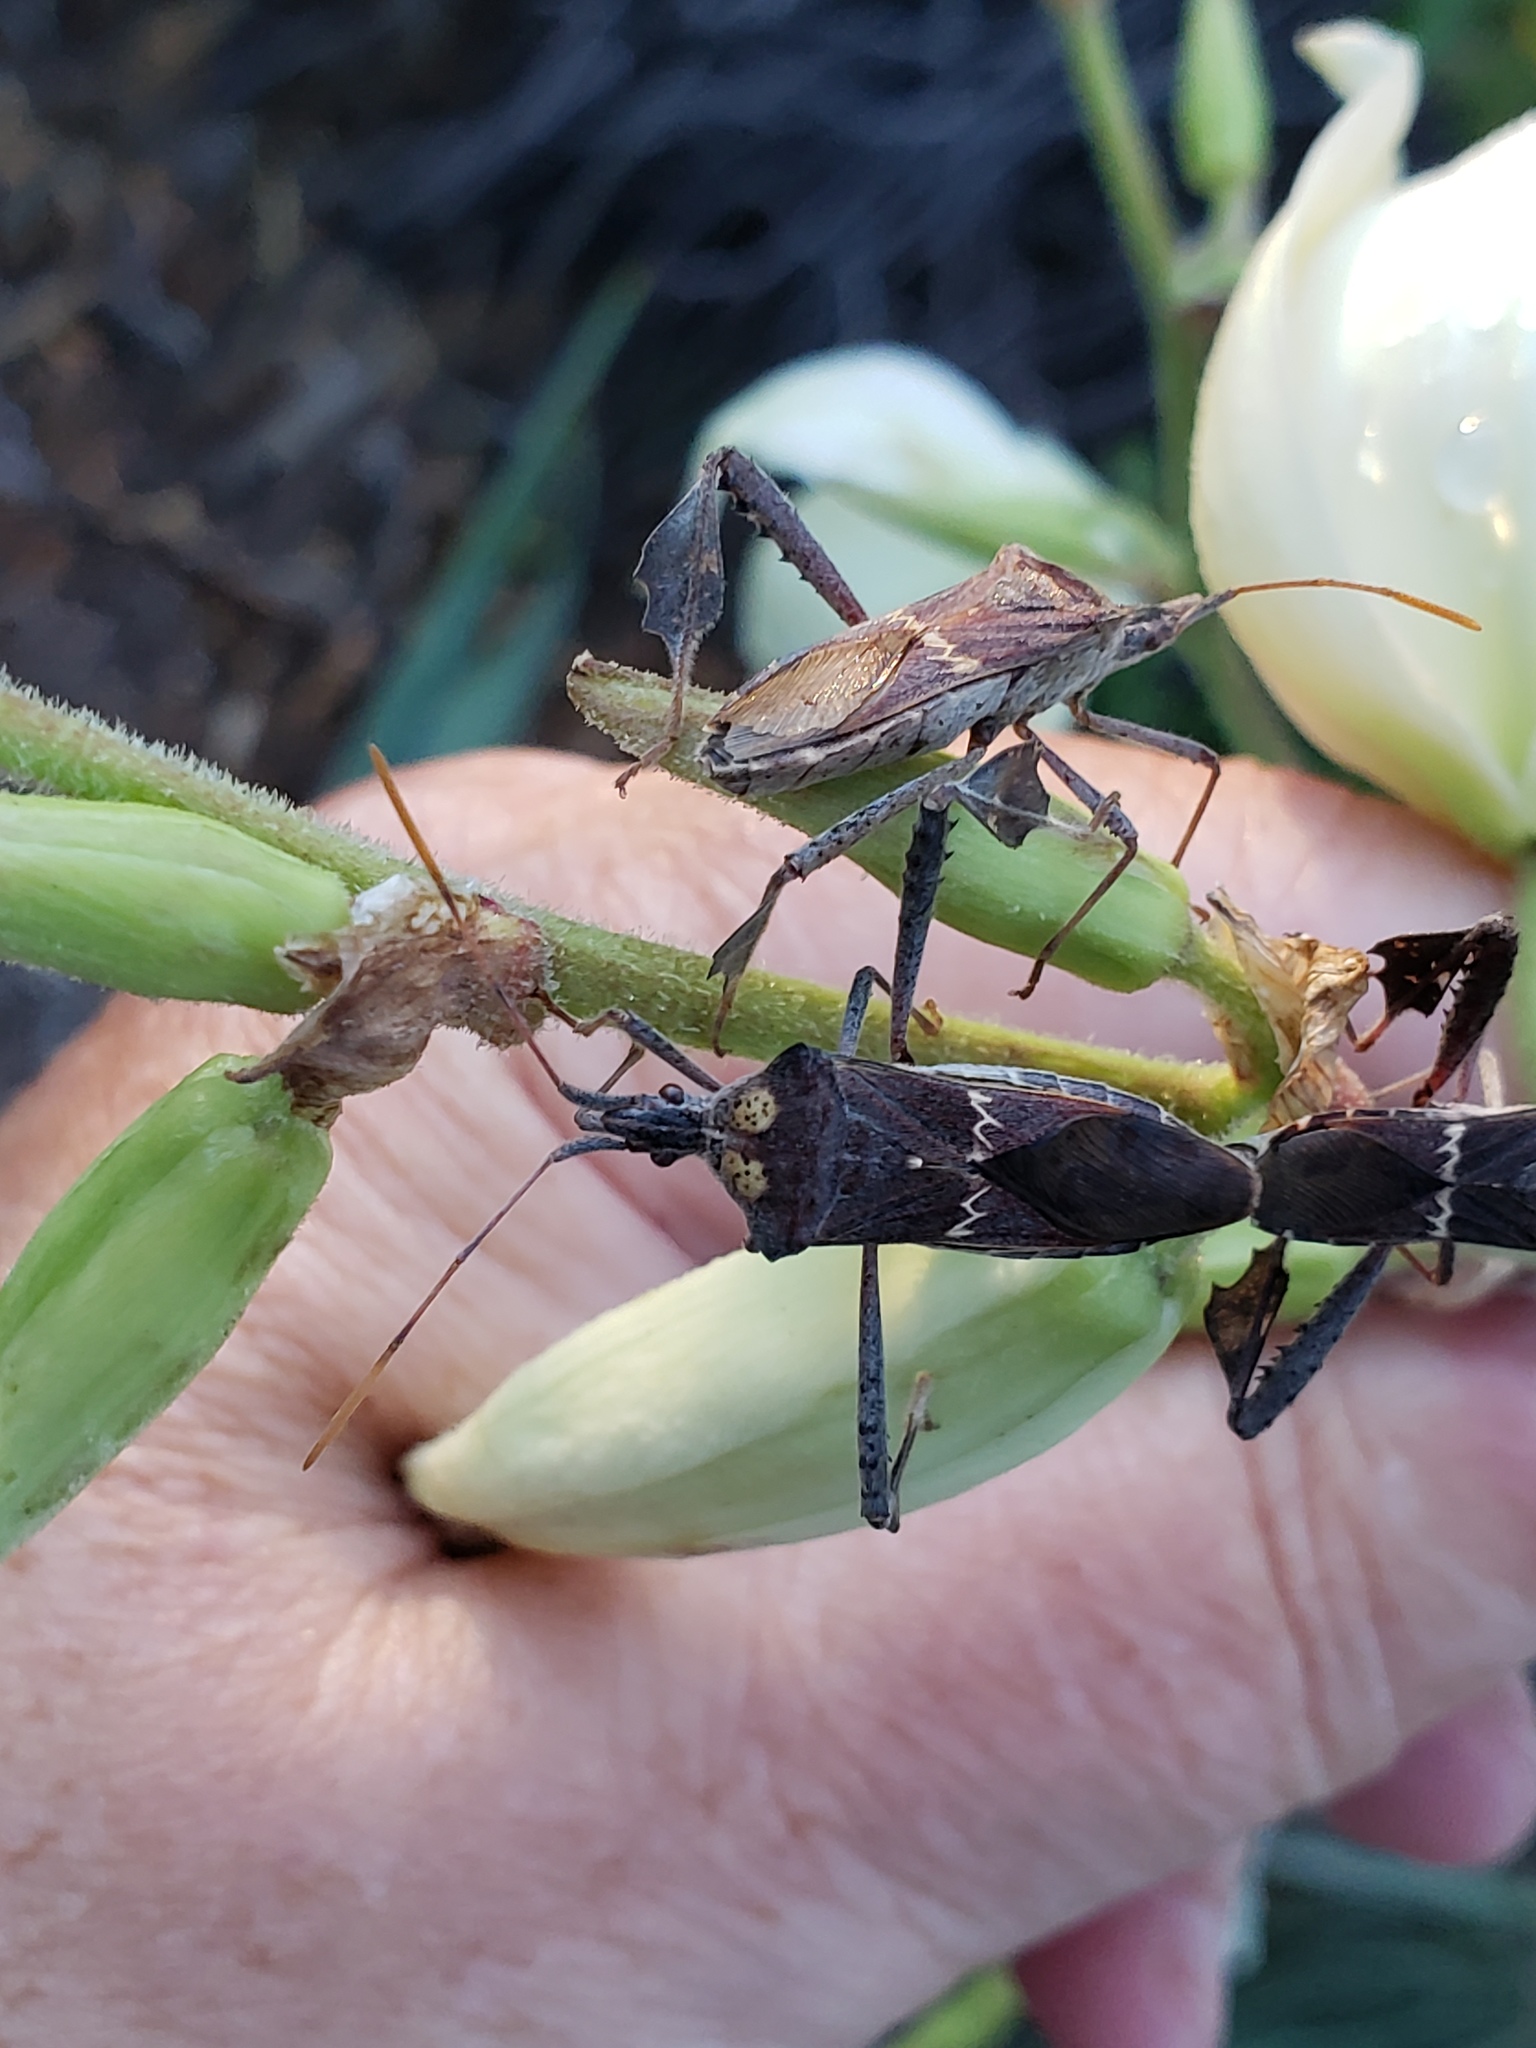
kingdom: Animalia
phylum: Arthropoda
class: Insecta
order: Hemiptera
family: Coreidae
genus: Leptoglossus
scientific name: Leptoglossus zonatus
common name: Large-legged bug
